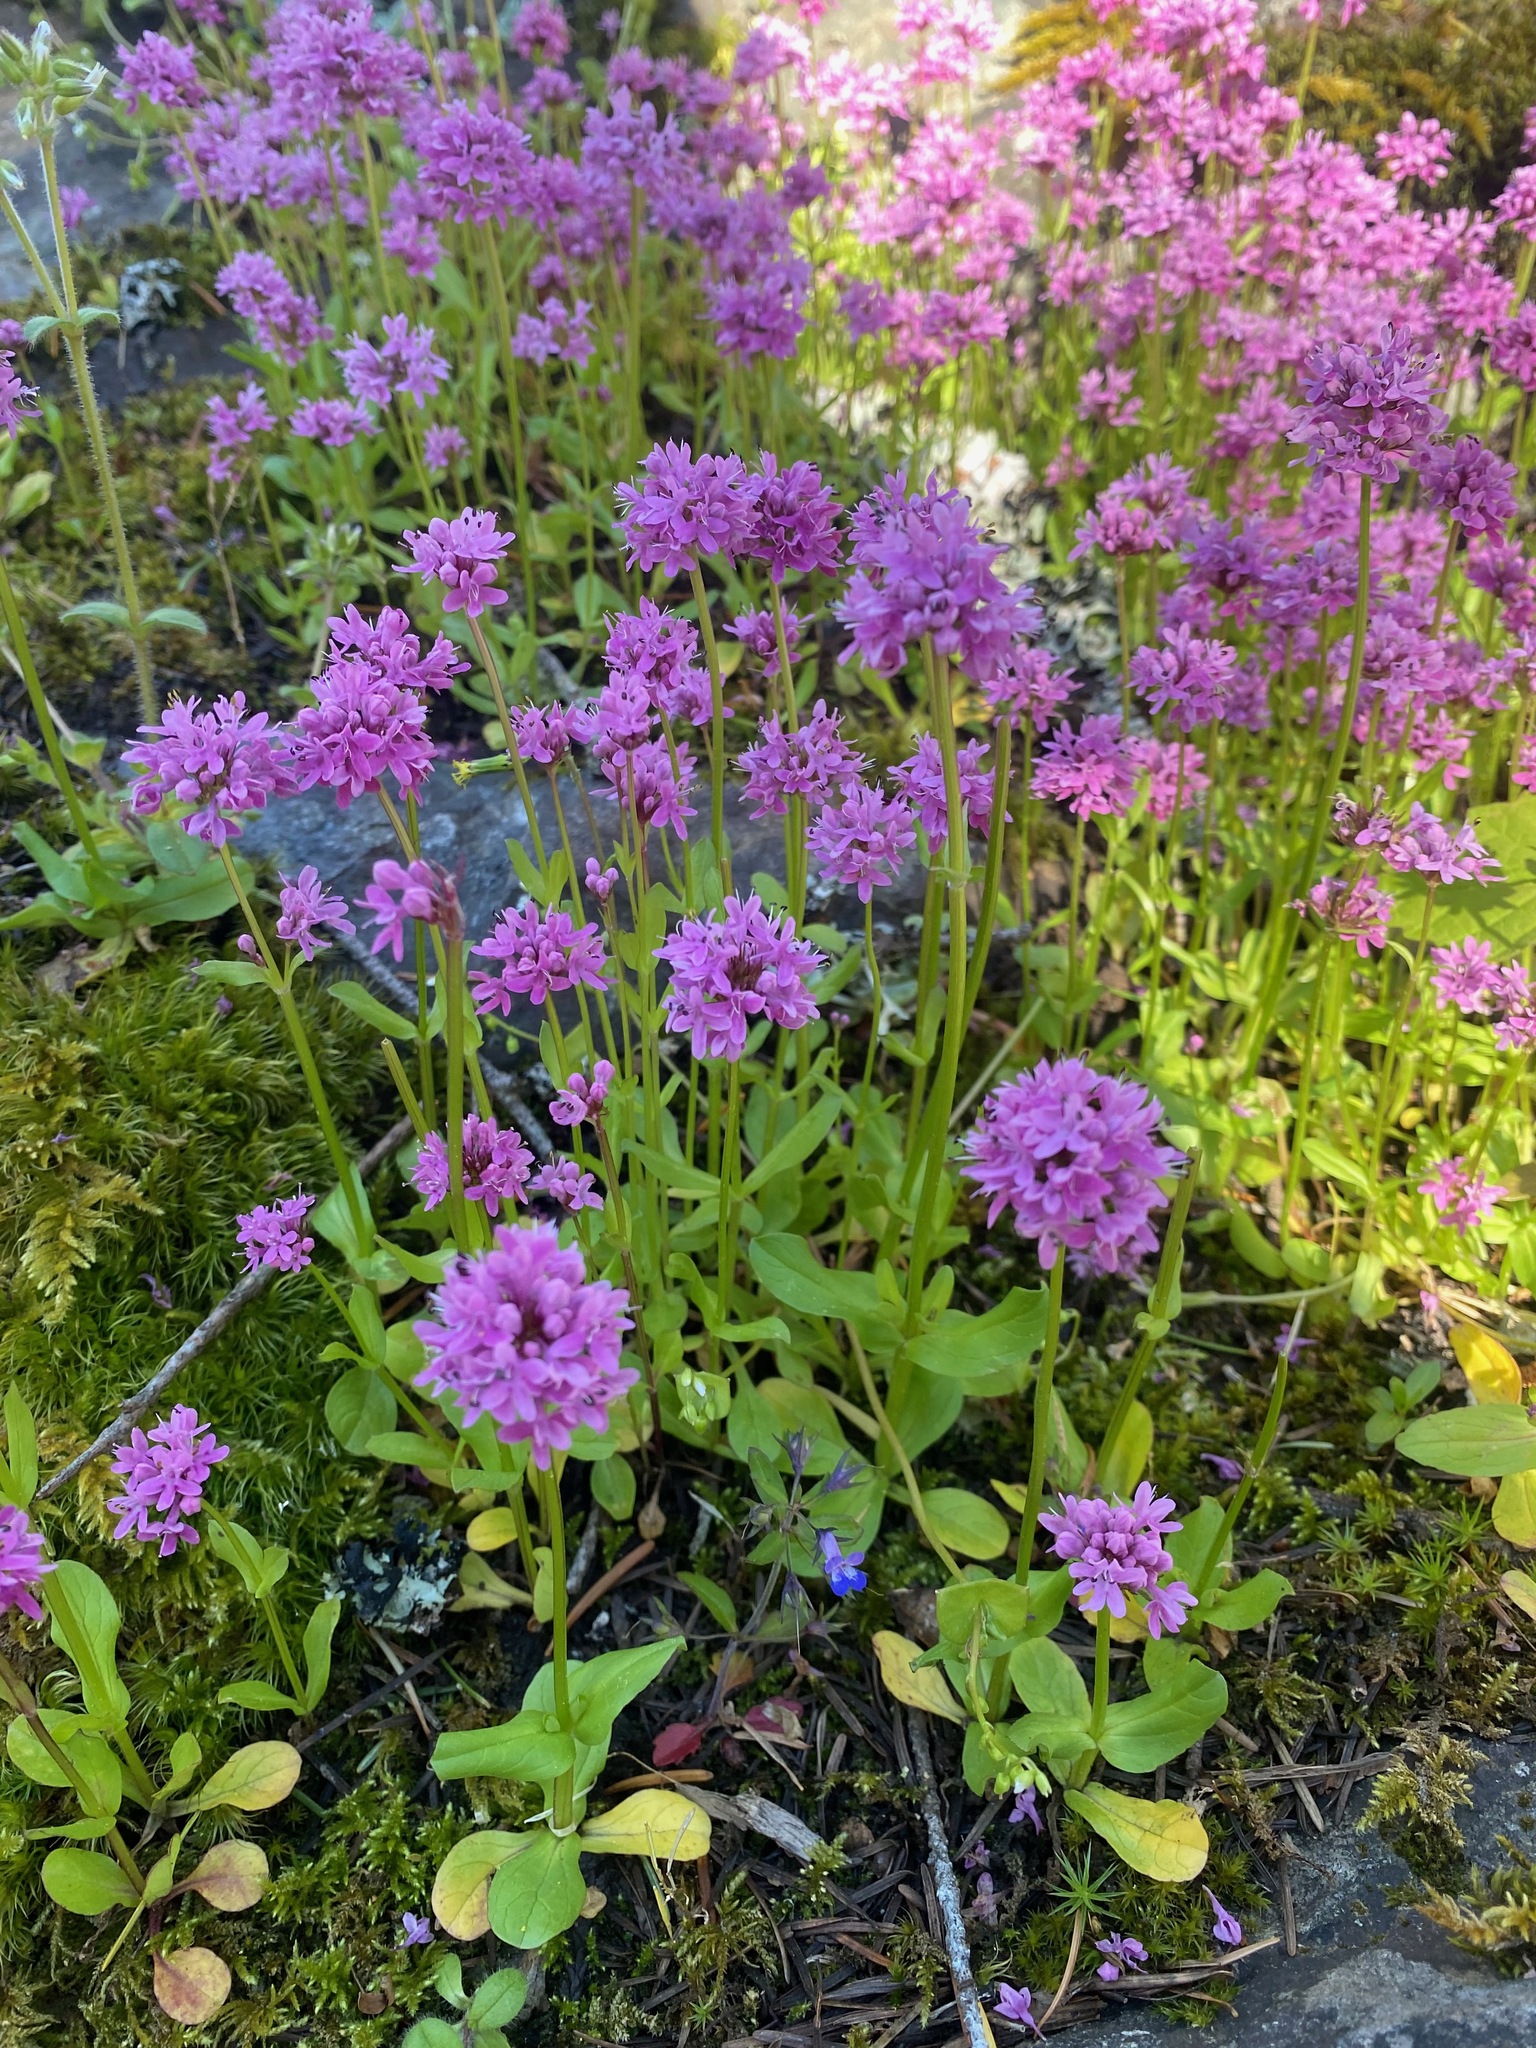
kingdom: Plantae
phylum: Tracheophyta
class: Magnoliopsida
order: Dipsacales
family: Caprifoliaceae
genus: Plectritis
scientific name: Plectritis congesta
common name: Pink plectritis
